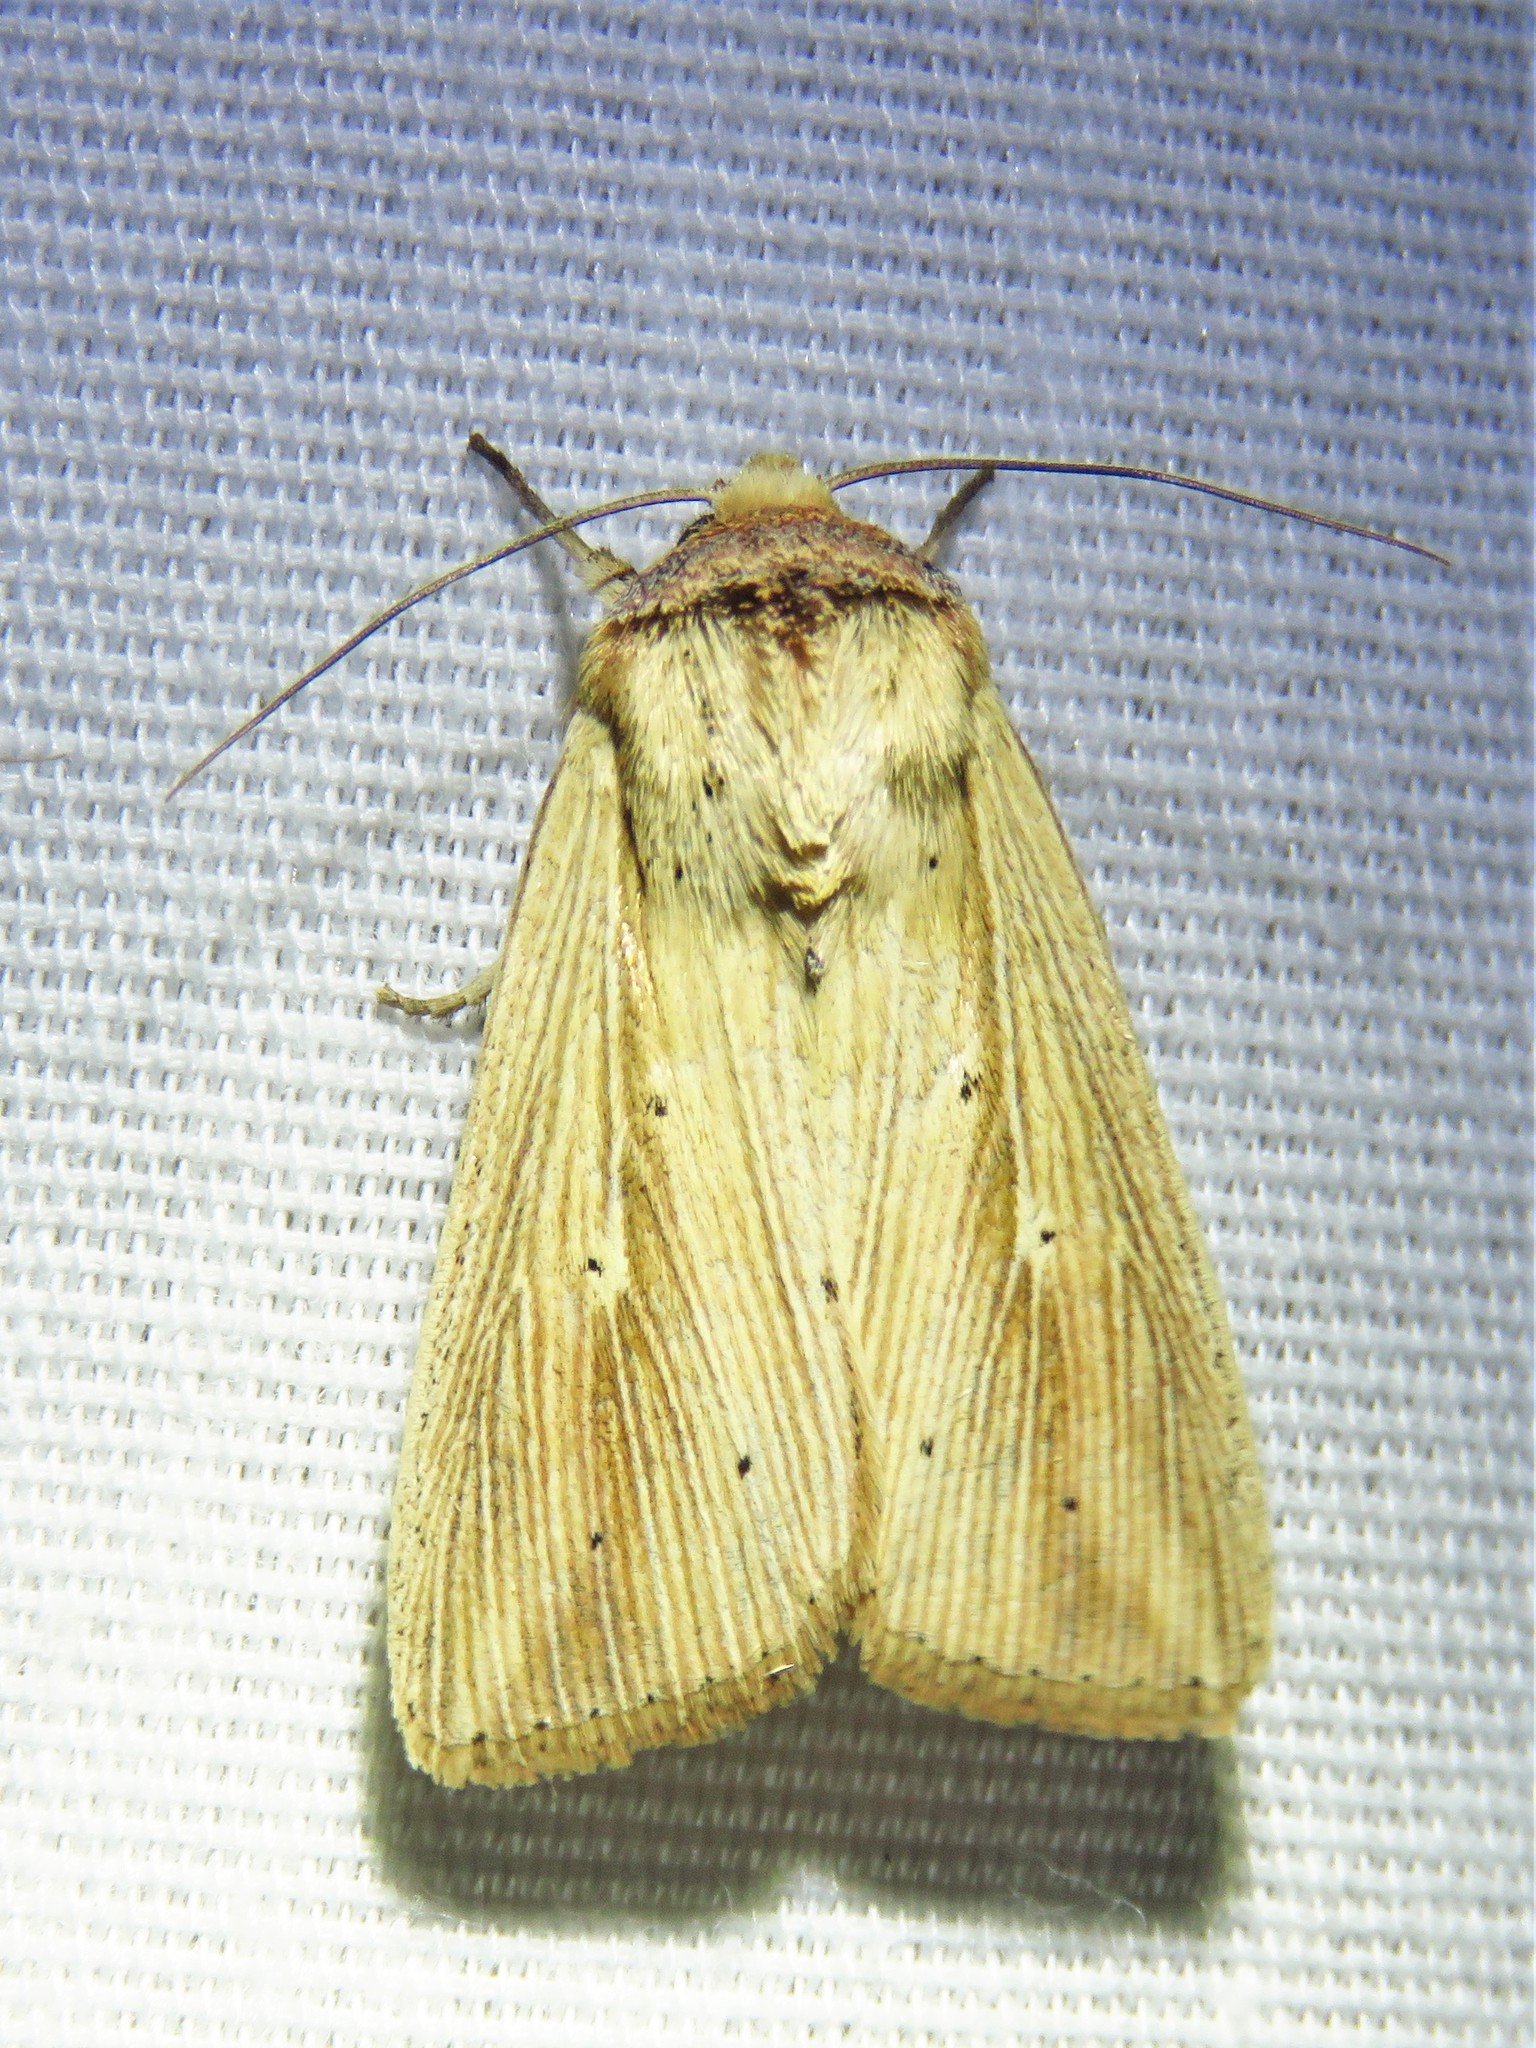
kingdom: Animalia
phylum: Arthropoda
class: Insecta
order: Lepidoptera
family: Noctuidae
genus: Leucania
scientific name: Leucania adjuta
